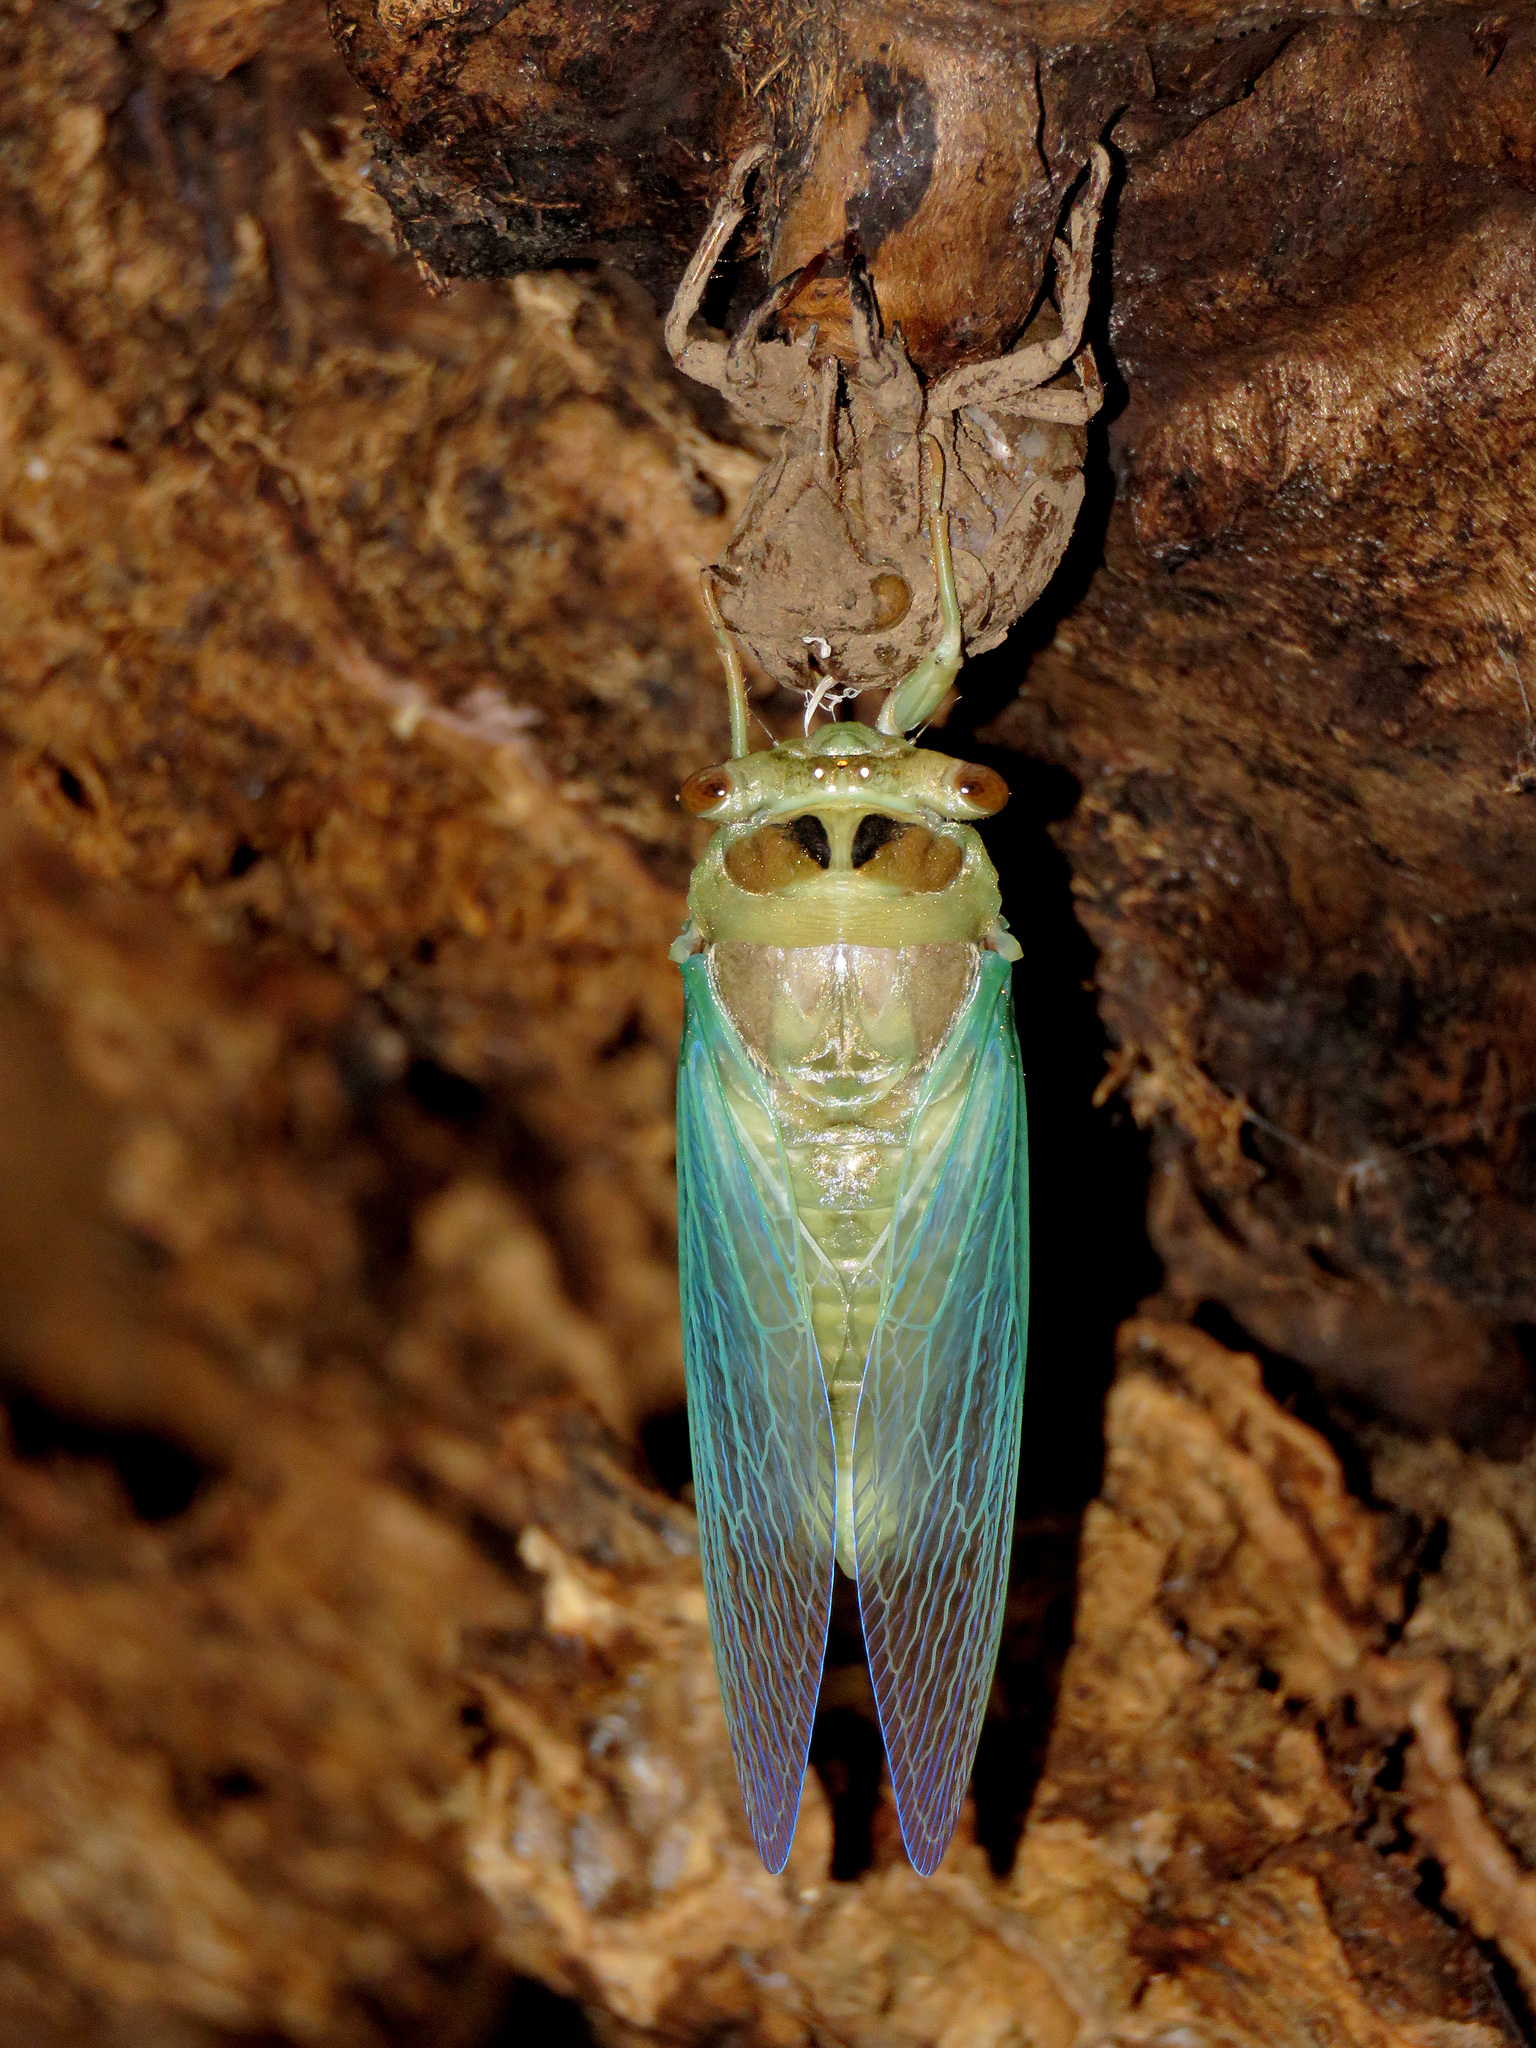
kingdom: Animalia
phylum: Arthropoda
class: Insecta
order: Hemiptera
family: Cicadidae
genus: Megatibicen
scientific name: Megatibicen cultriformis
